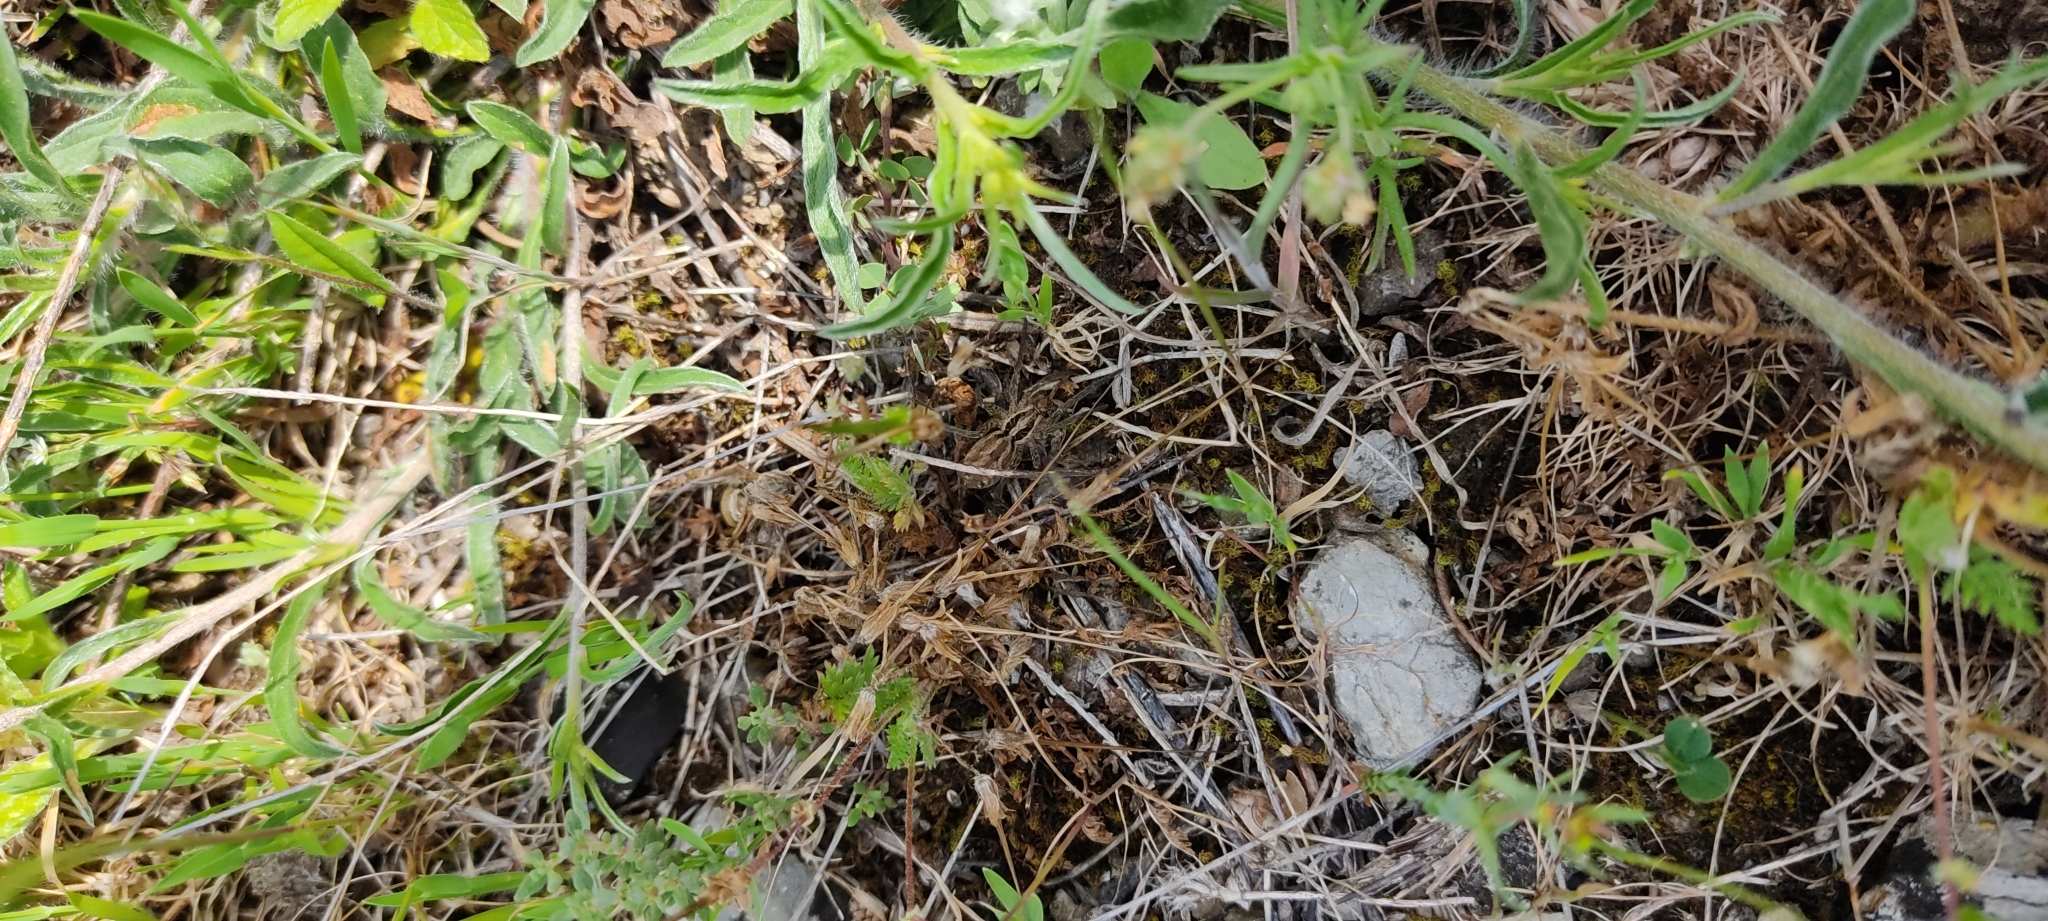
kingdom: Animalia
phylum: Arthropoda
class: Arachnida
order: Araneae
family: Lycosidae
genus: Hogna
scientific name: Hogna radiata
